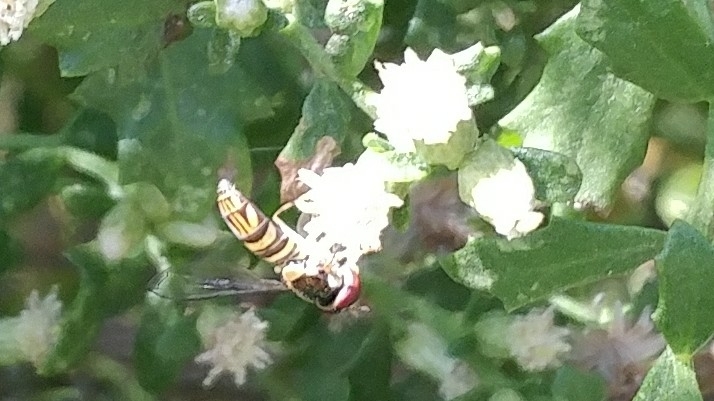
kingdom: Animalia
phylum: Arthropoda
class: Insecta
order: Diptera
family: Syrphidae
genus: Allograpta
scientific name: Allograpta obliqua
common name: Common oblique syrphid
